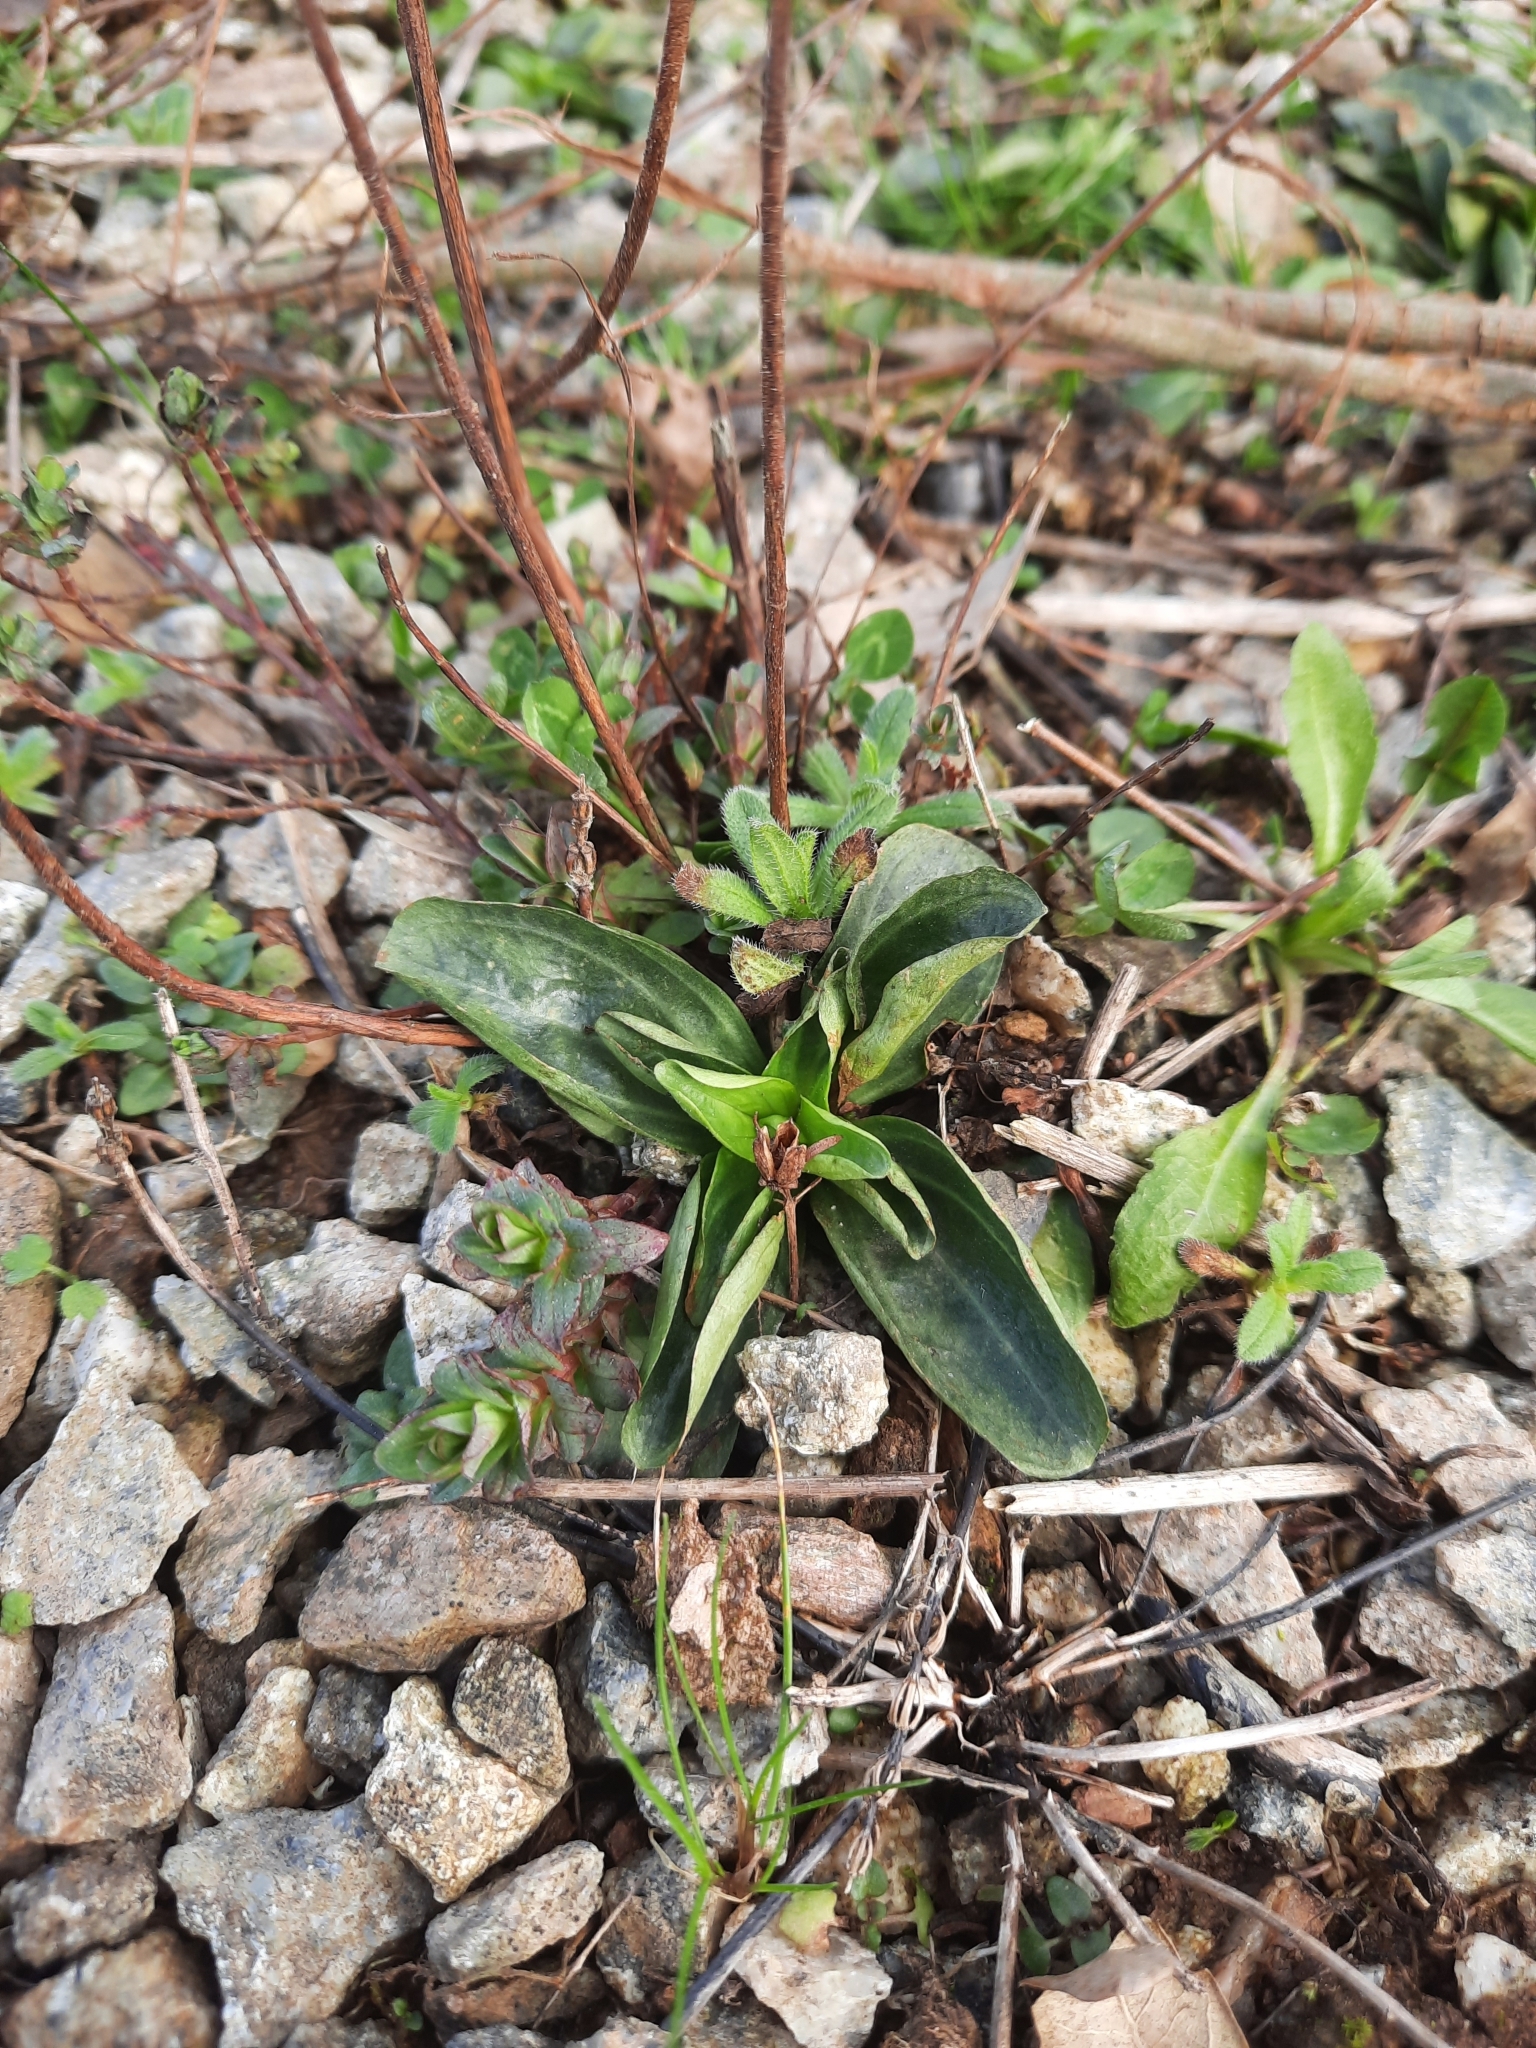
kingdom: Plantae
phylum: Tracheophyta
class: Magnoliopsida
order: Gentianales
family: Gentianaceae
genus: Centaurium
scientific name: Centaurium erythraea
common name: Common centaury
